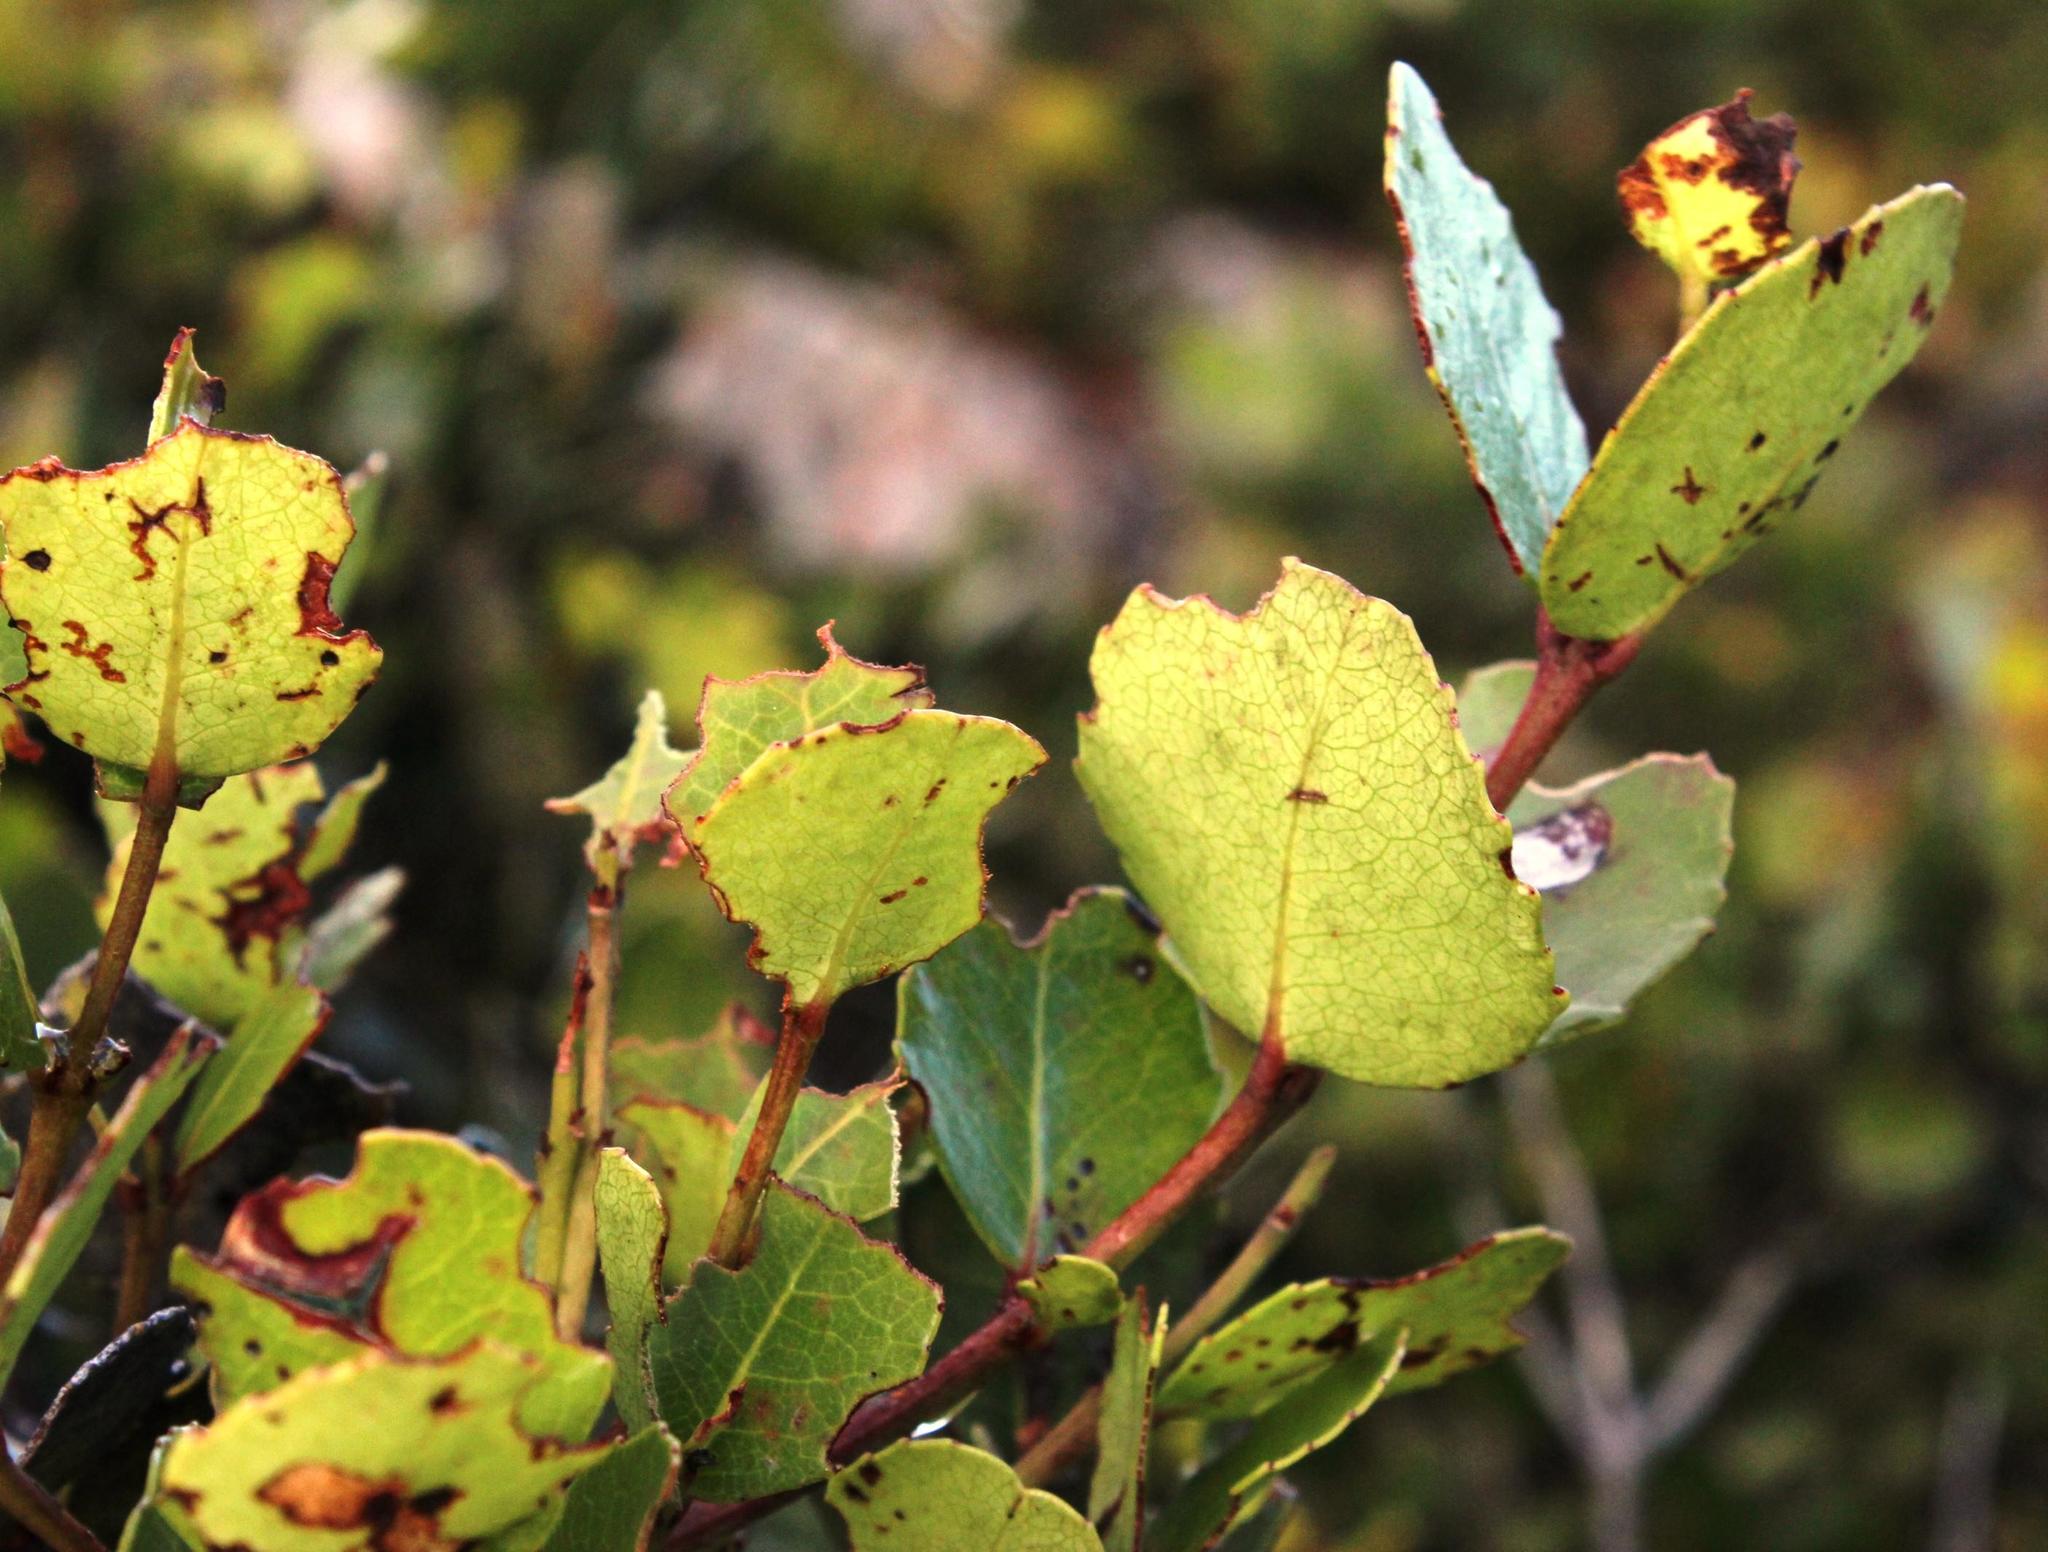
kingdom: Plantae
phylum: Tracheophyta
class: Magnoliopsida
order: Celastrales
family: Celastraceae
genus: Cassine
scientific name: Cassine peragua
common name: Cape saffron
